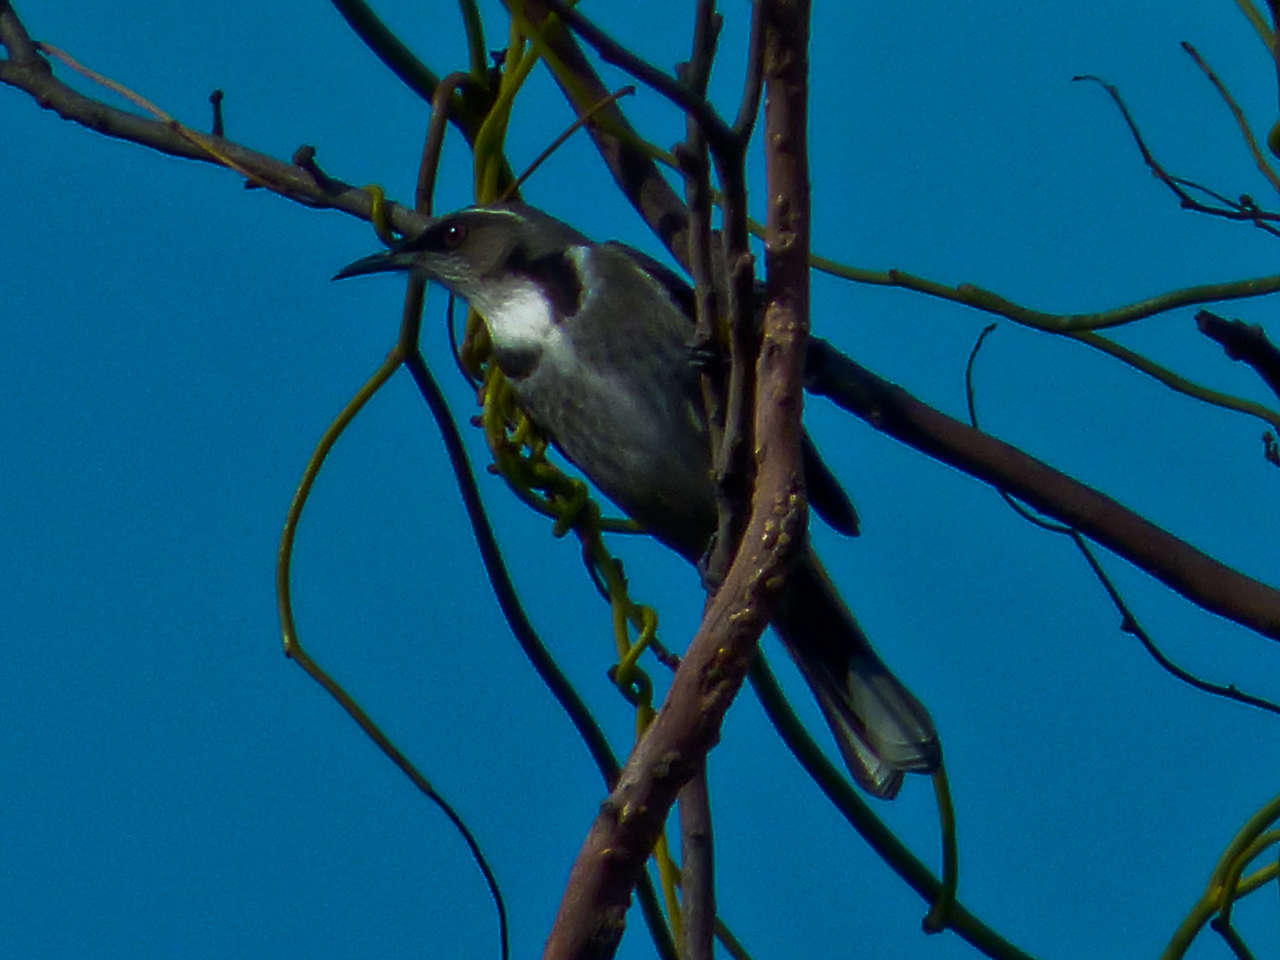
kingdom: Animalia
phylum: Chordata
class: Aves
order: Passeriformes
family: Meliphagidae
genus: Phylidonyris
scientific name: Phylidonyris pyrrhopterus
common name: Crescent honeyeater
